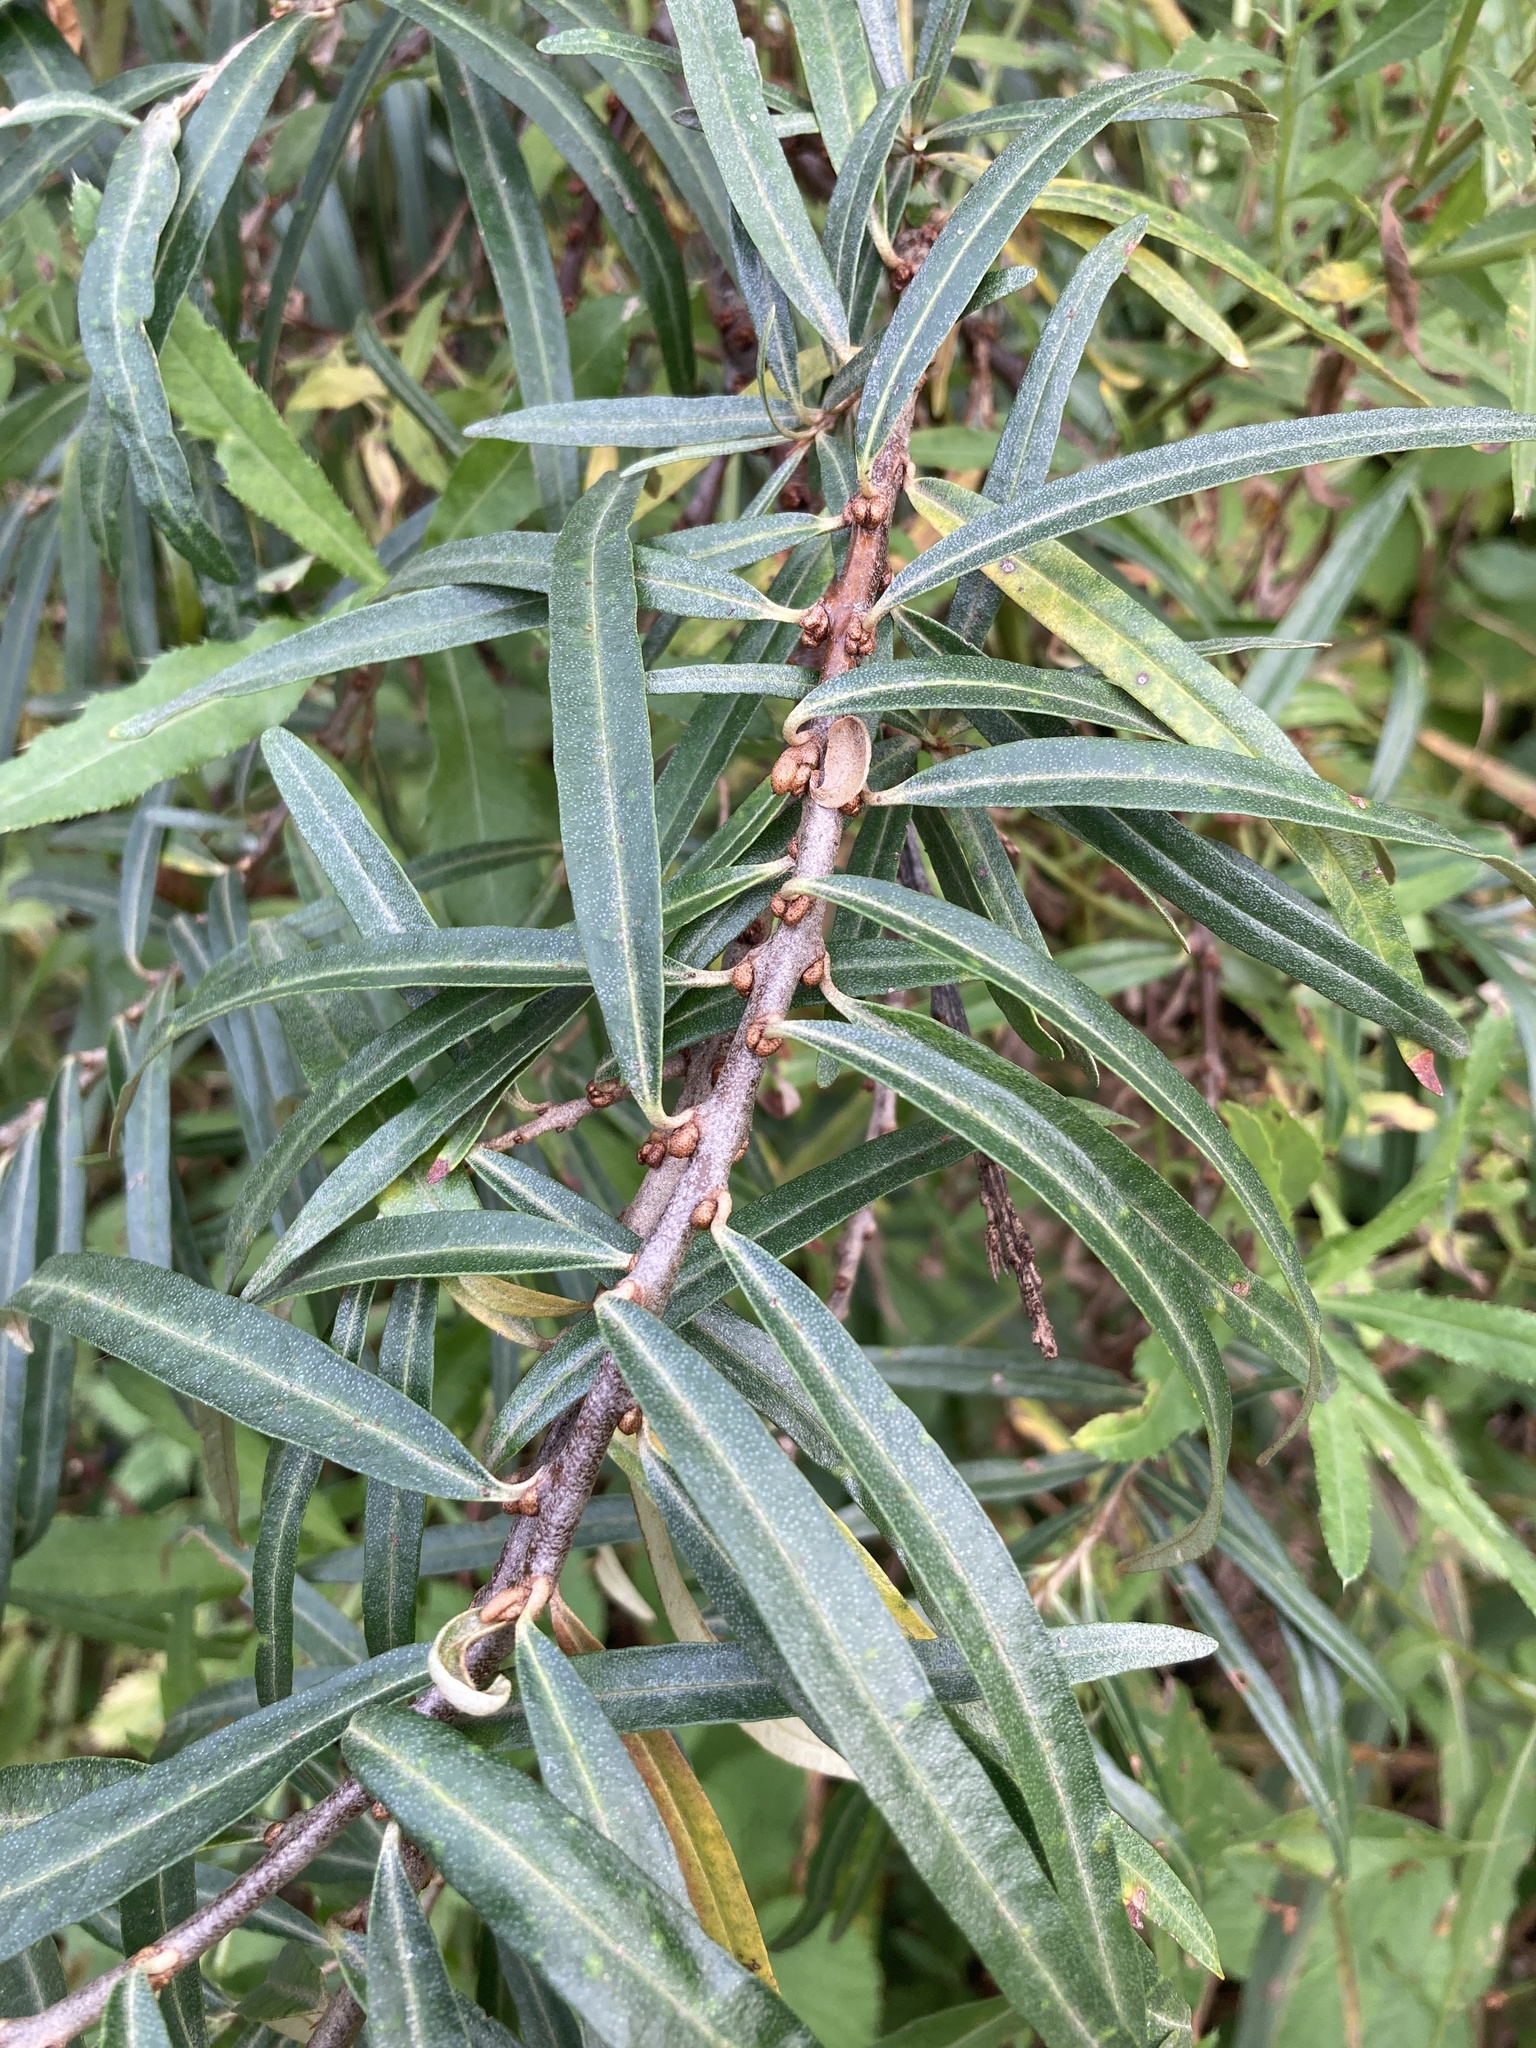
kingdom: Plantae
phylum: Tracheophyta
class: Magnoliopsida
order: Rosales
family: Elaeagnaceae
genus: Hippophae
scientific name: Hippophae rhamnoides
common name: Sea-buckthorn
